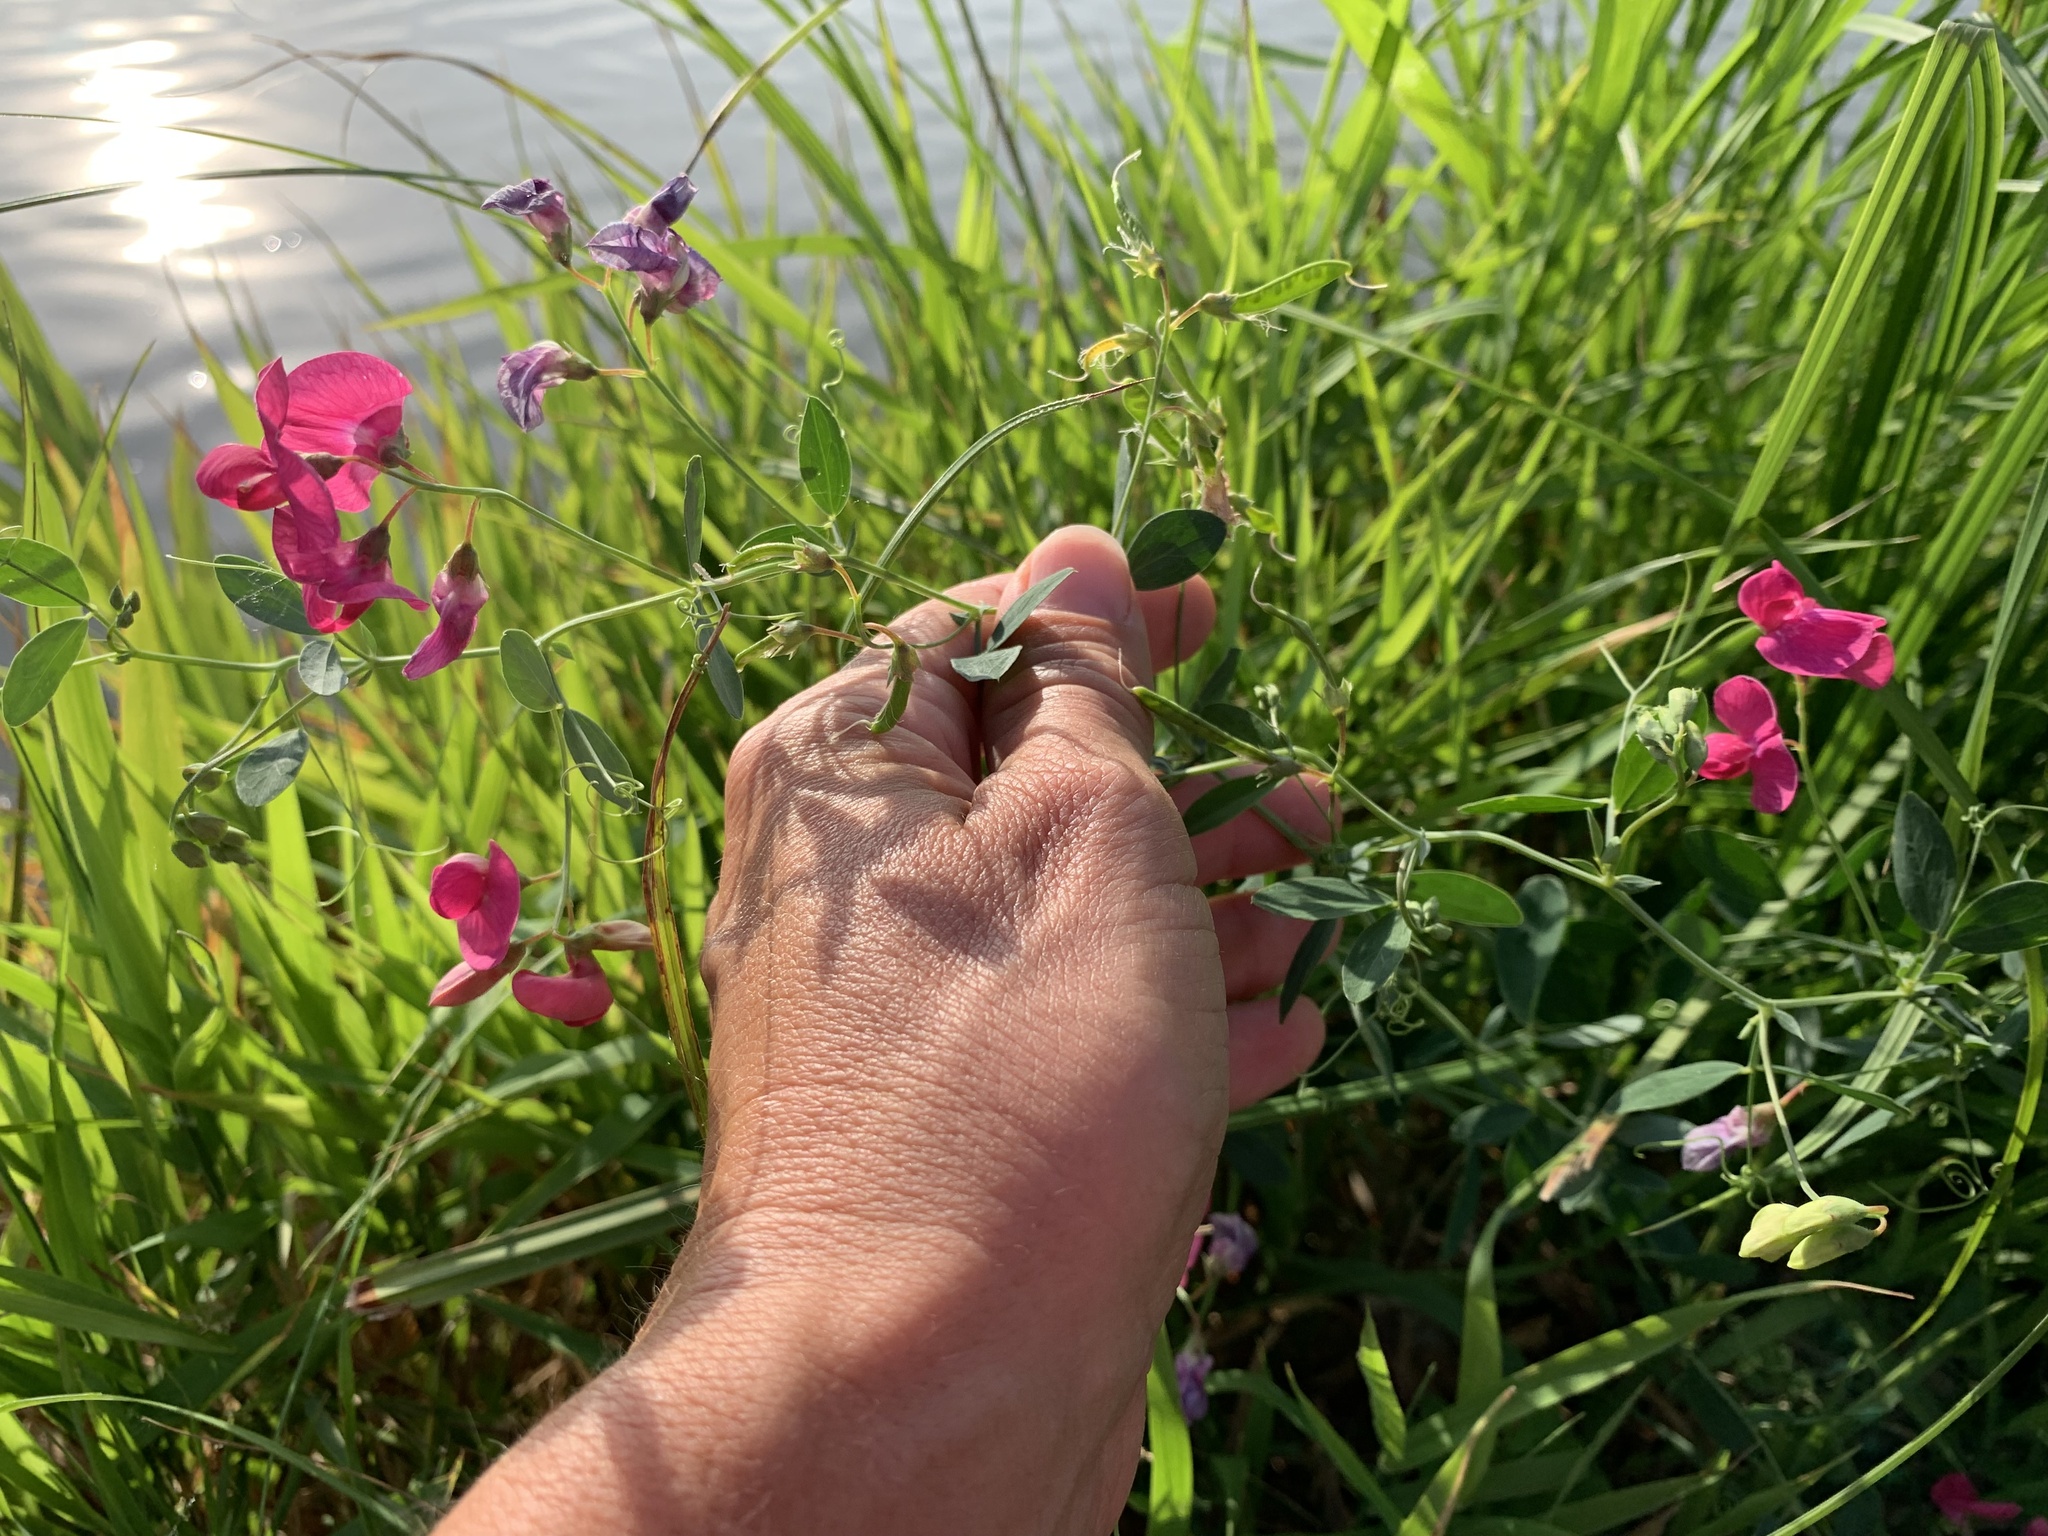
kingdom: Plantae
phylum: Tracheophyta
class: Magnoliopsida
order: Fabales
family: Fabaceae
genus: Lathyrus
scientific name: Lathyrus tuberosus
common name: Tuberous pea
